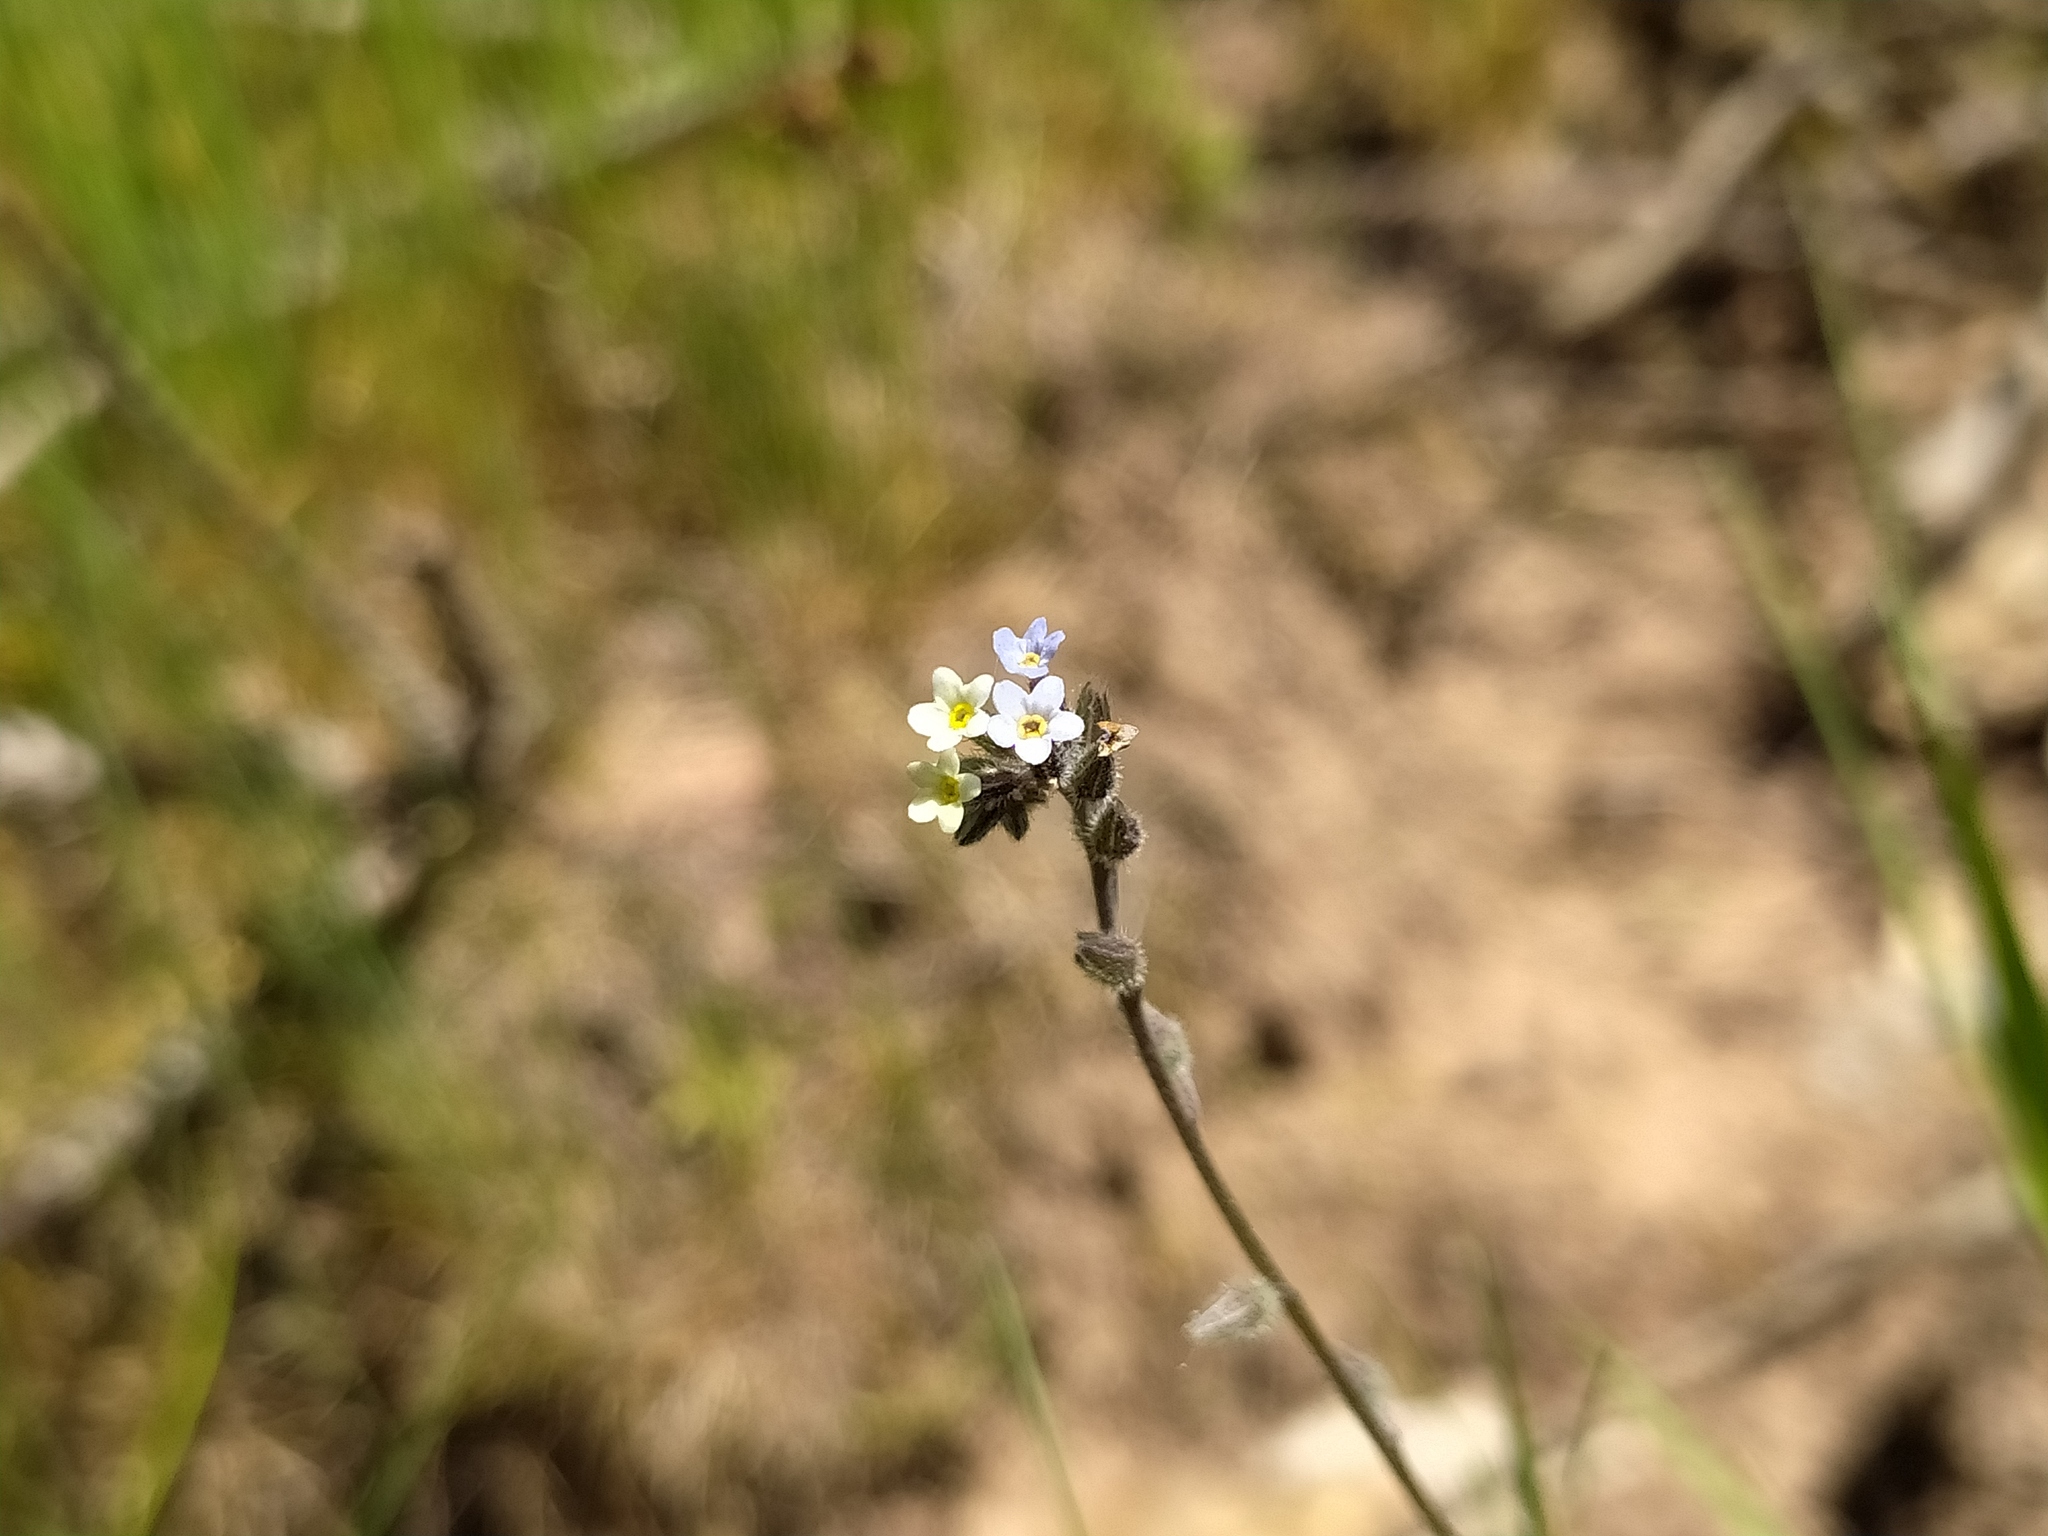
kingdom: Plantae
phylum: Tracheophyta
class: Magnoliopsida
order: Boraginales
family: Boraginaceae
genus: Myosotis
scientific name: Myosotis discolor
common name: Changing forget-me-not
